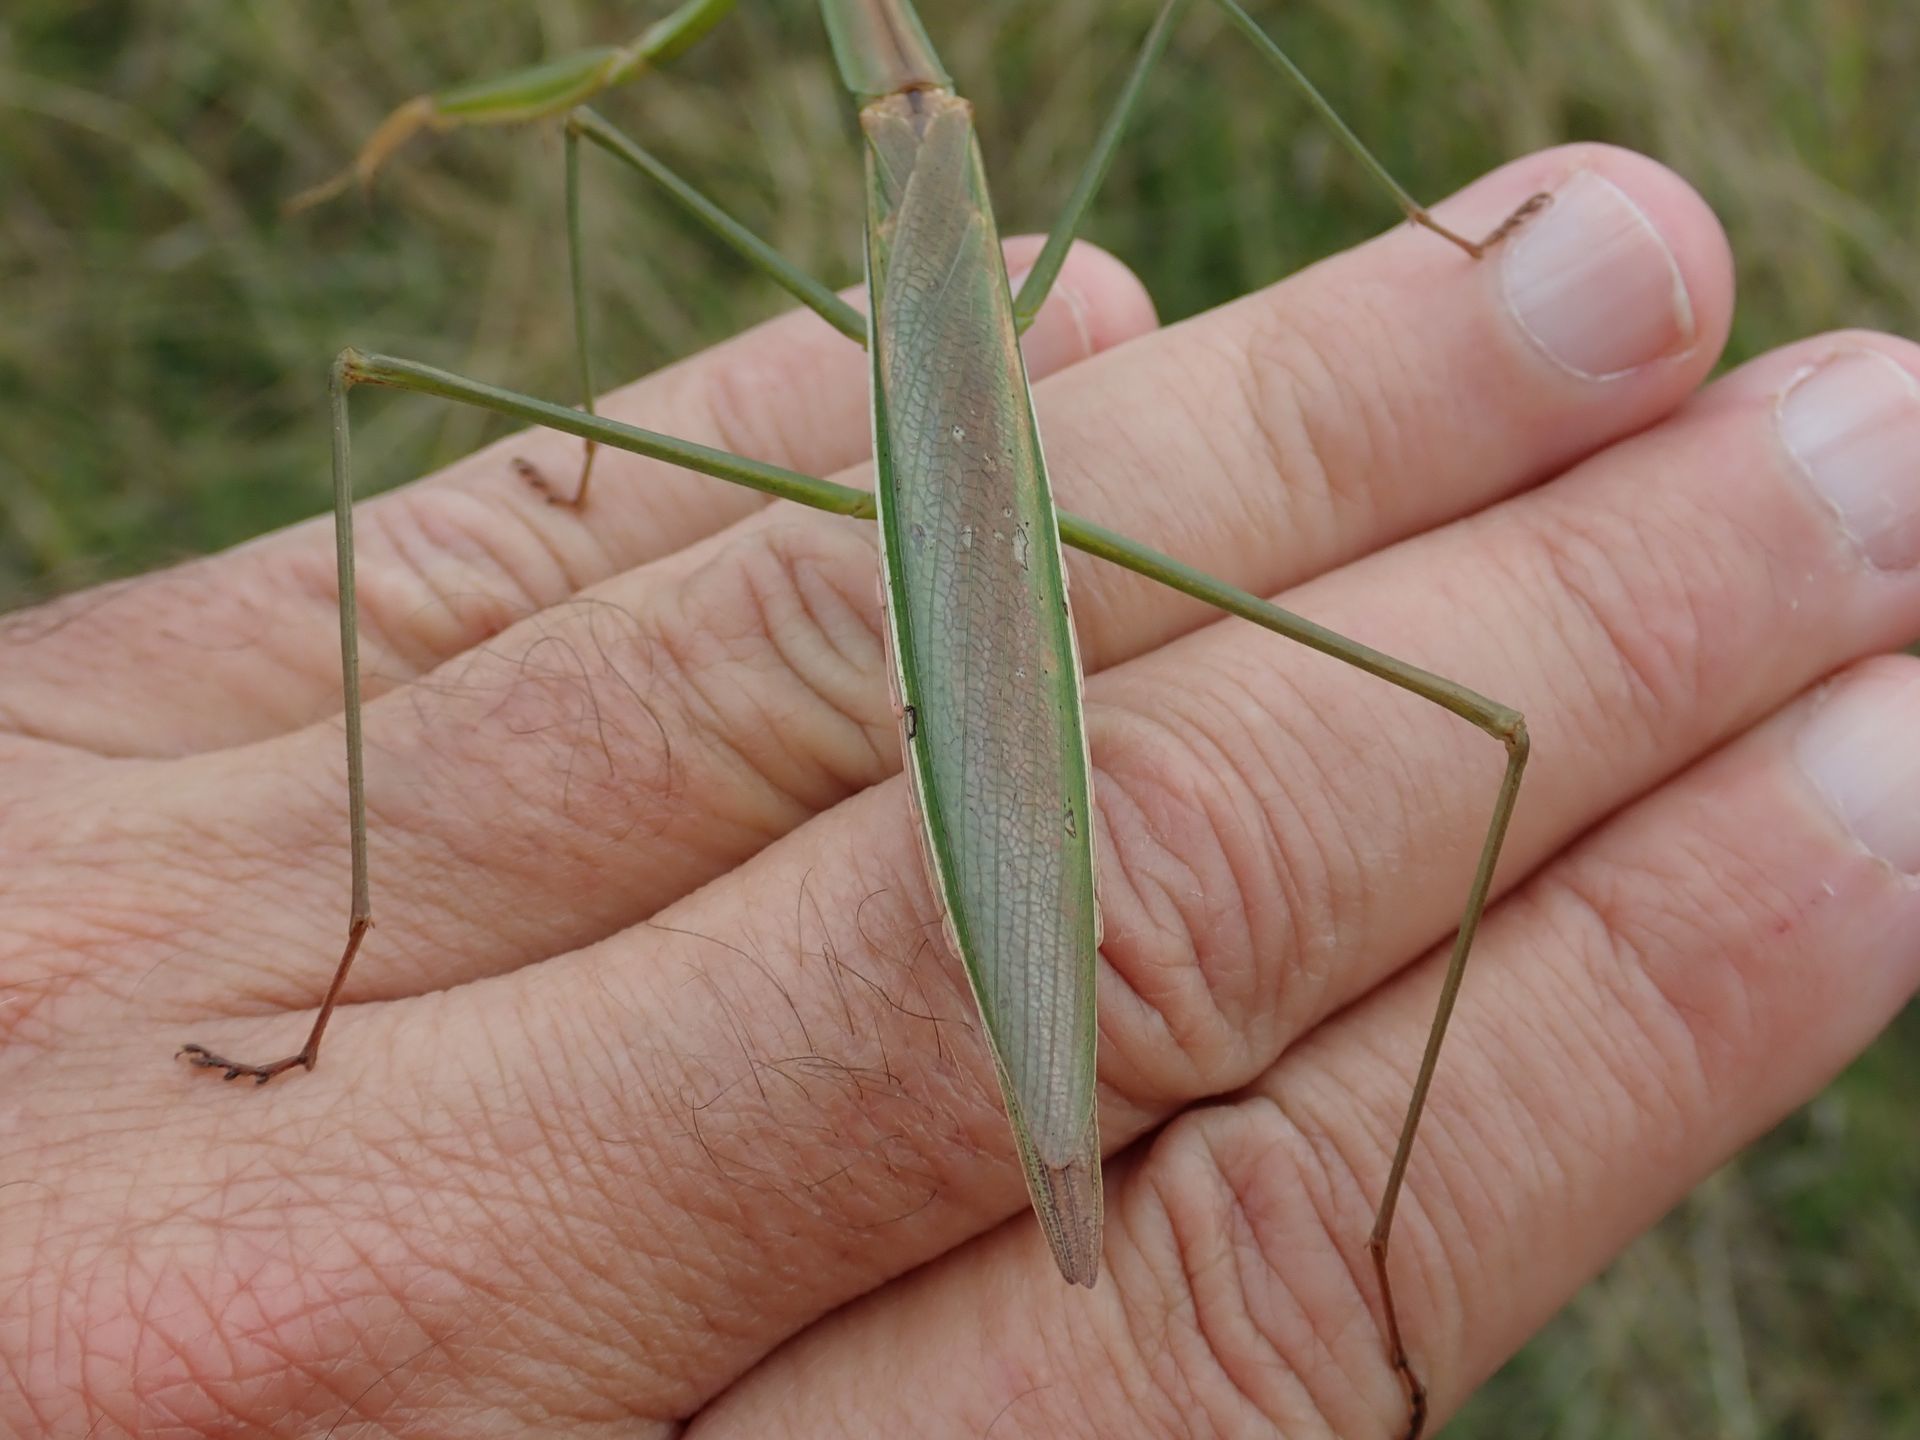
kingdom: Animalia
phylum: Arthropoda
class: Insecta
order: Mantodea
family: Mantidae
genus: Tenodera
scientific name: Tenodera australasiae
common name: Purple-winged mantis
